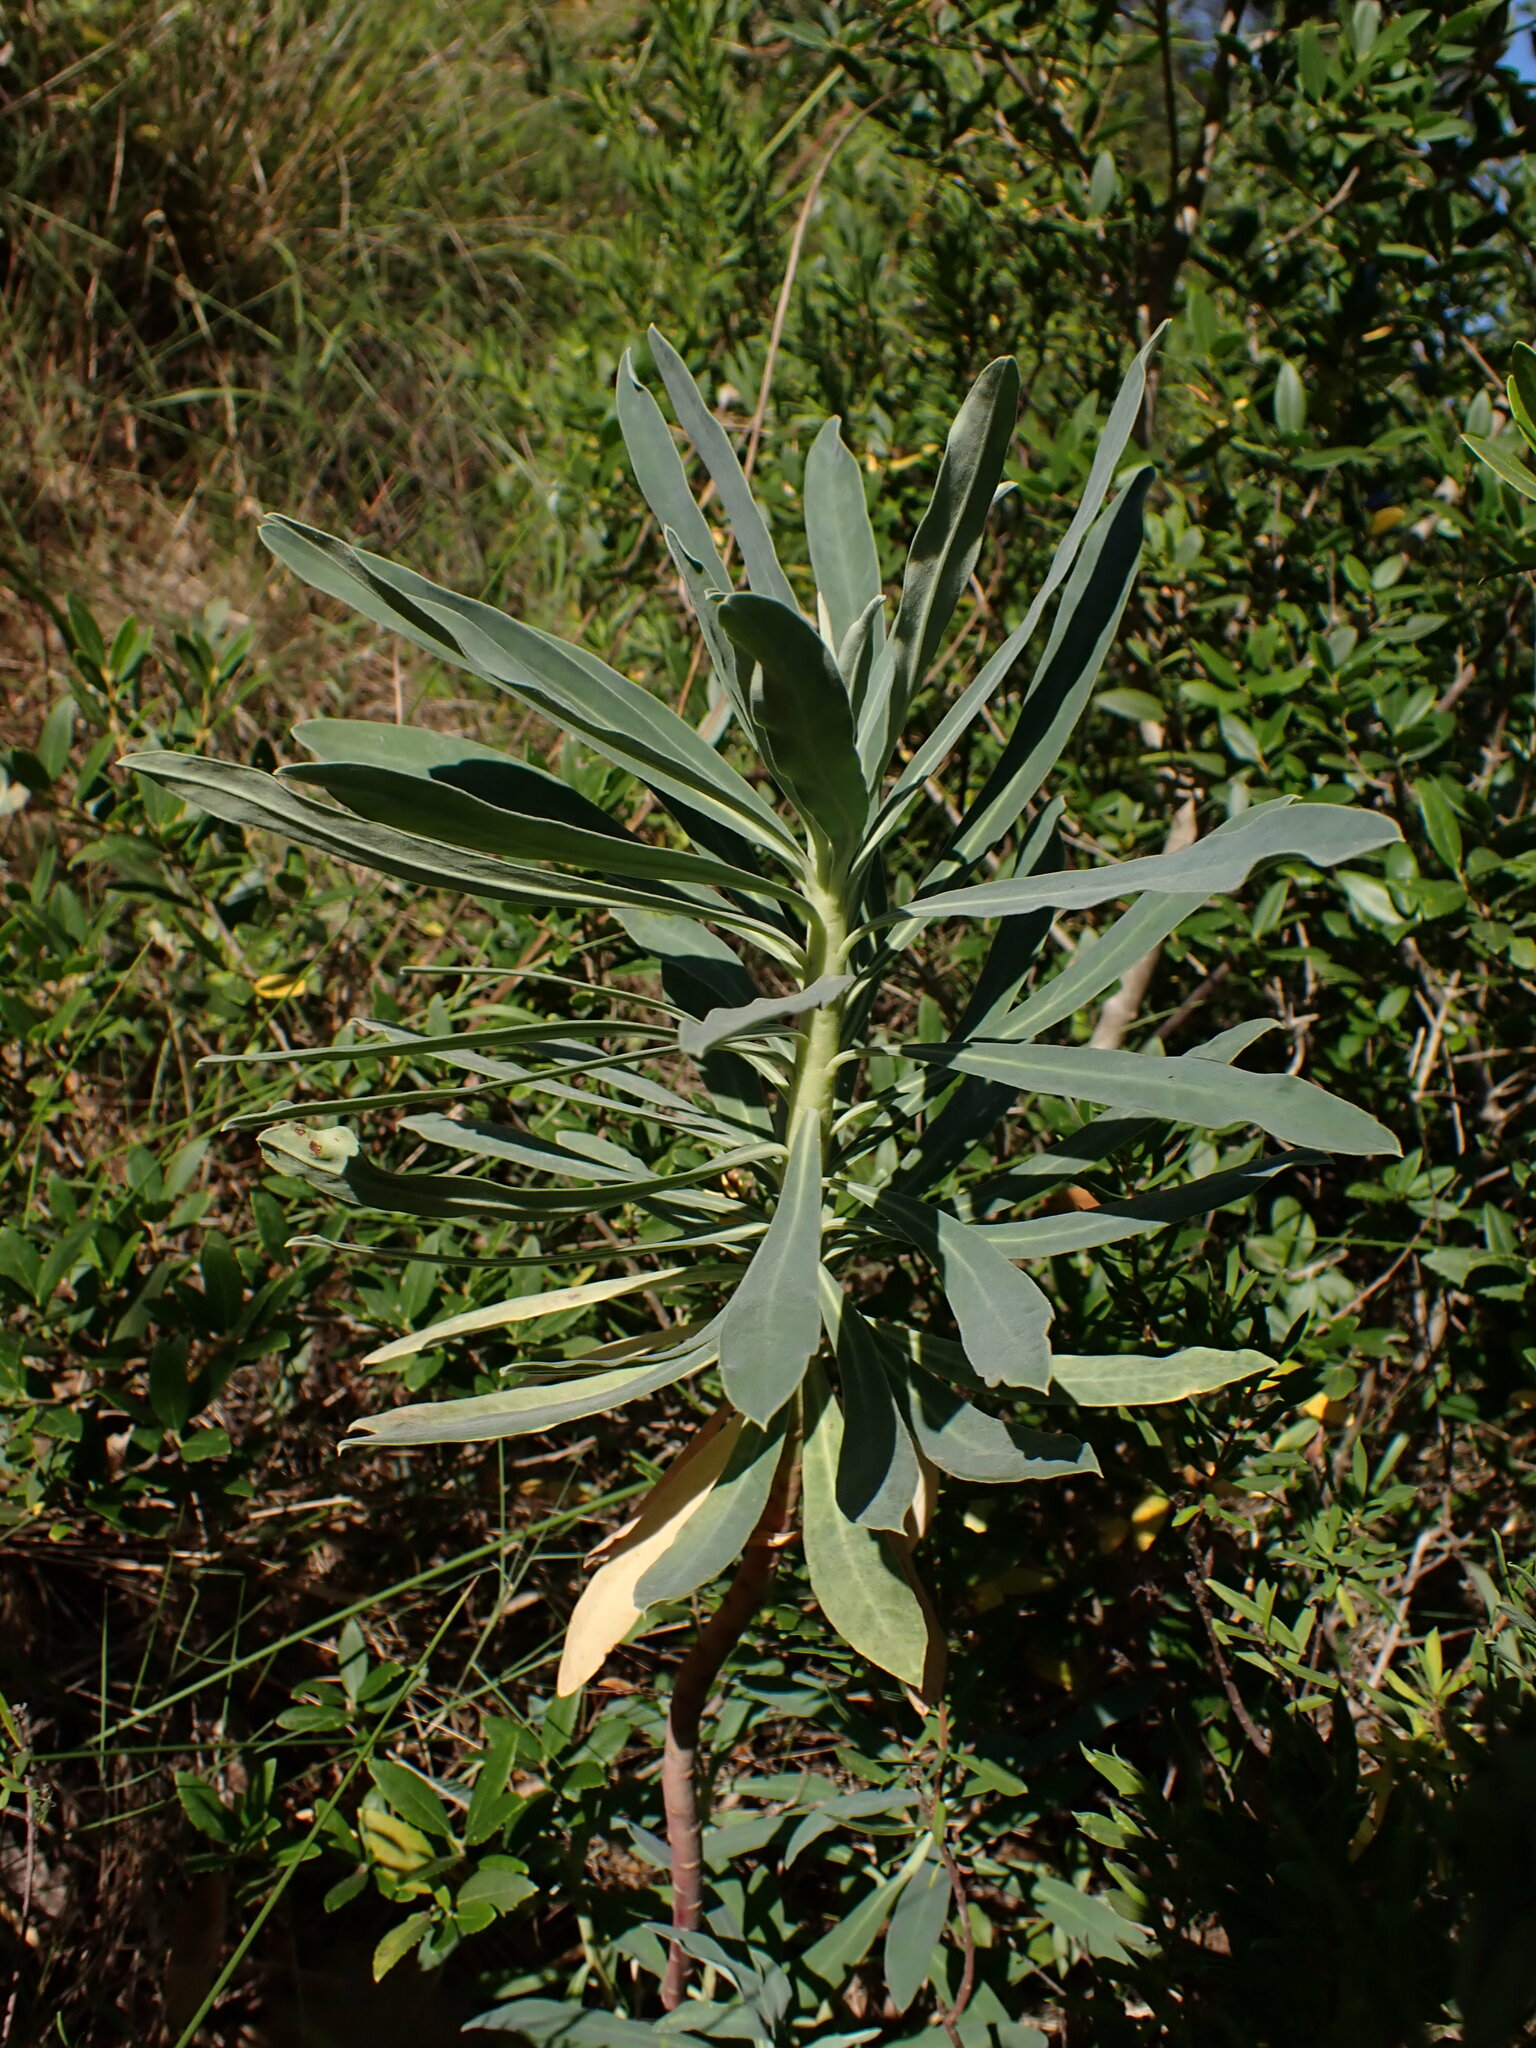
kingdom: Plantae
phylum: Tracheophyta
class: Magnoliopsida
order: Malpighiales
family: Euphorbiaceae
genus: Euphorbia
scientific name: Euphorbia characias
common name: Mediterranean spurge
